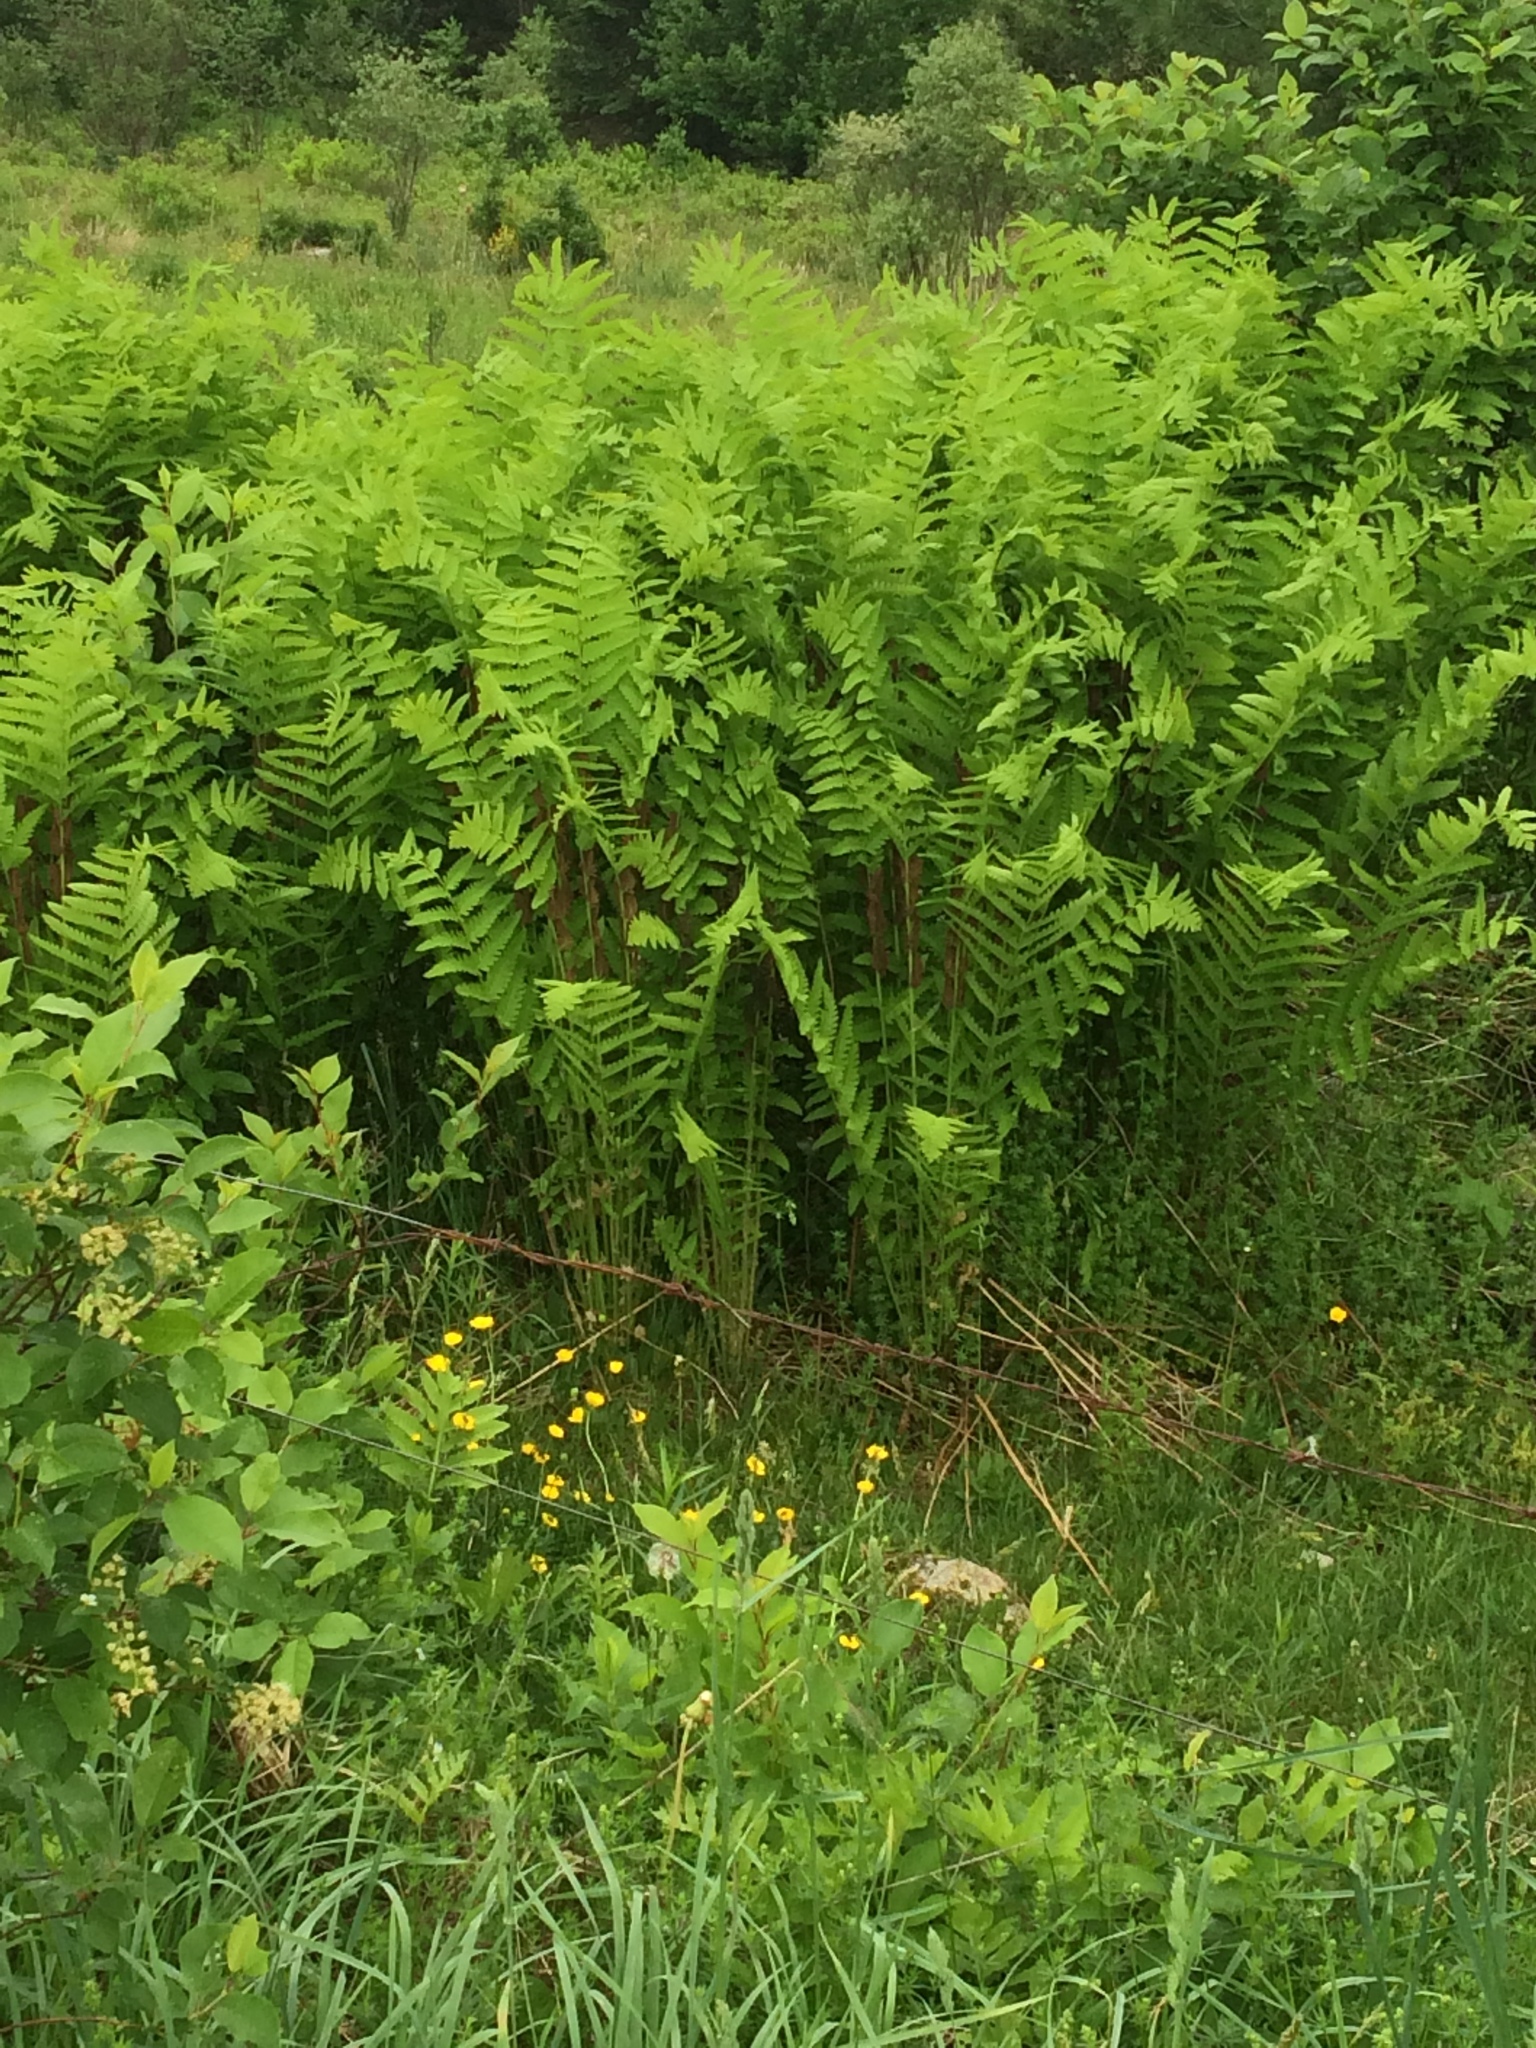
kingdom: Plantae
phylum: Tracheophyta
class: Polypodiopsida
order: Osmundales
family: Osmundaceae
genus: Claytosmunda
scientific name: Claytosmunda claytoniana
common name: Clayton's fern
